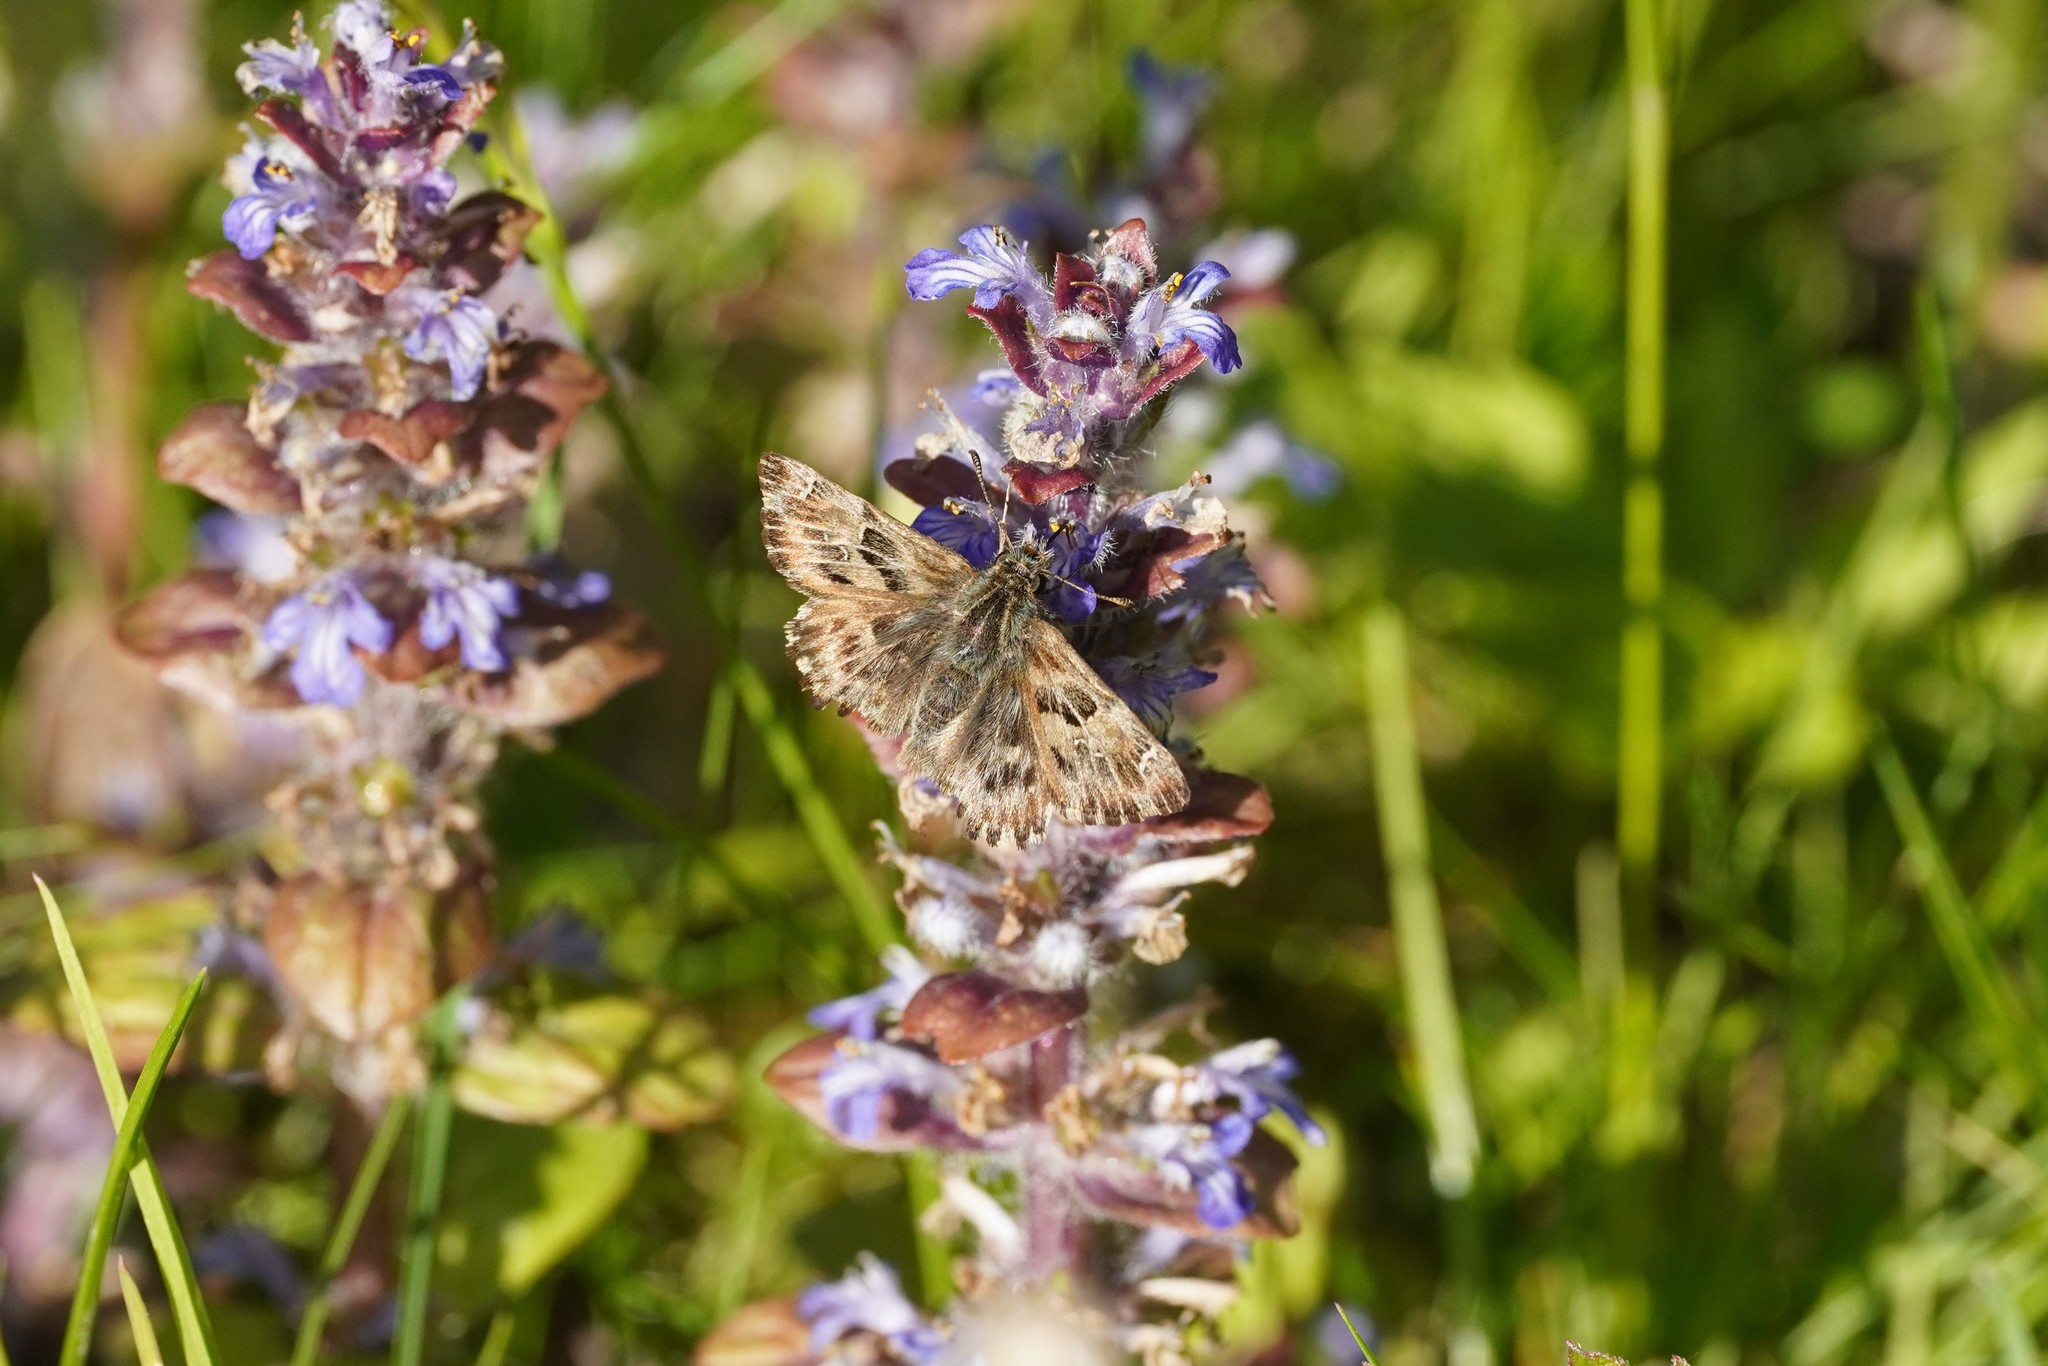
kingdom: Animalia
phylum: Arthropoda
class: Insecta
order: Lepidoptera
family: Hesperiidae
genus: Carcharodus
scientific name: Carcharodus alceae
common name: Mallow skipper
